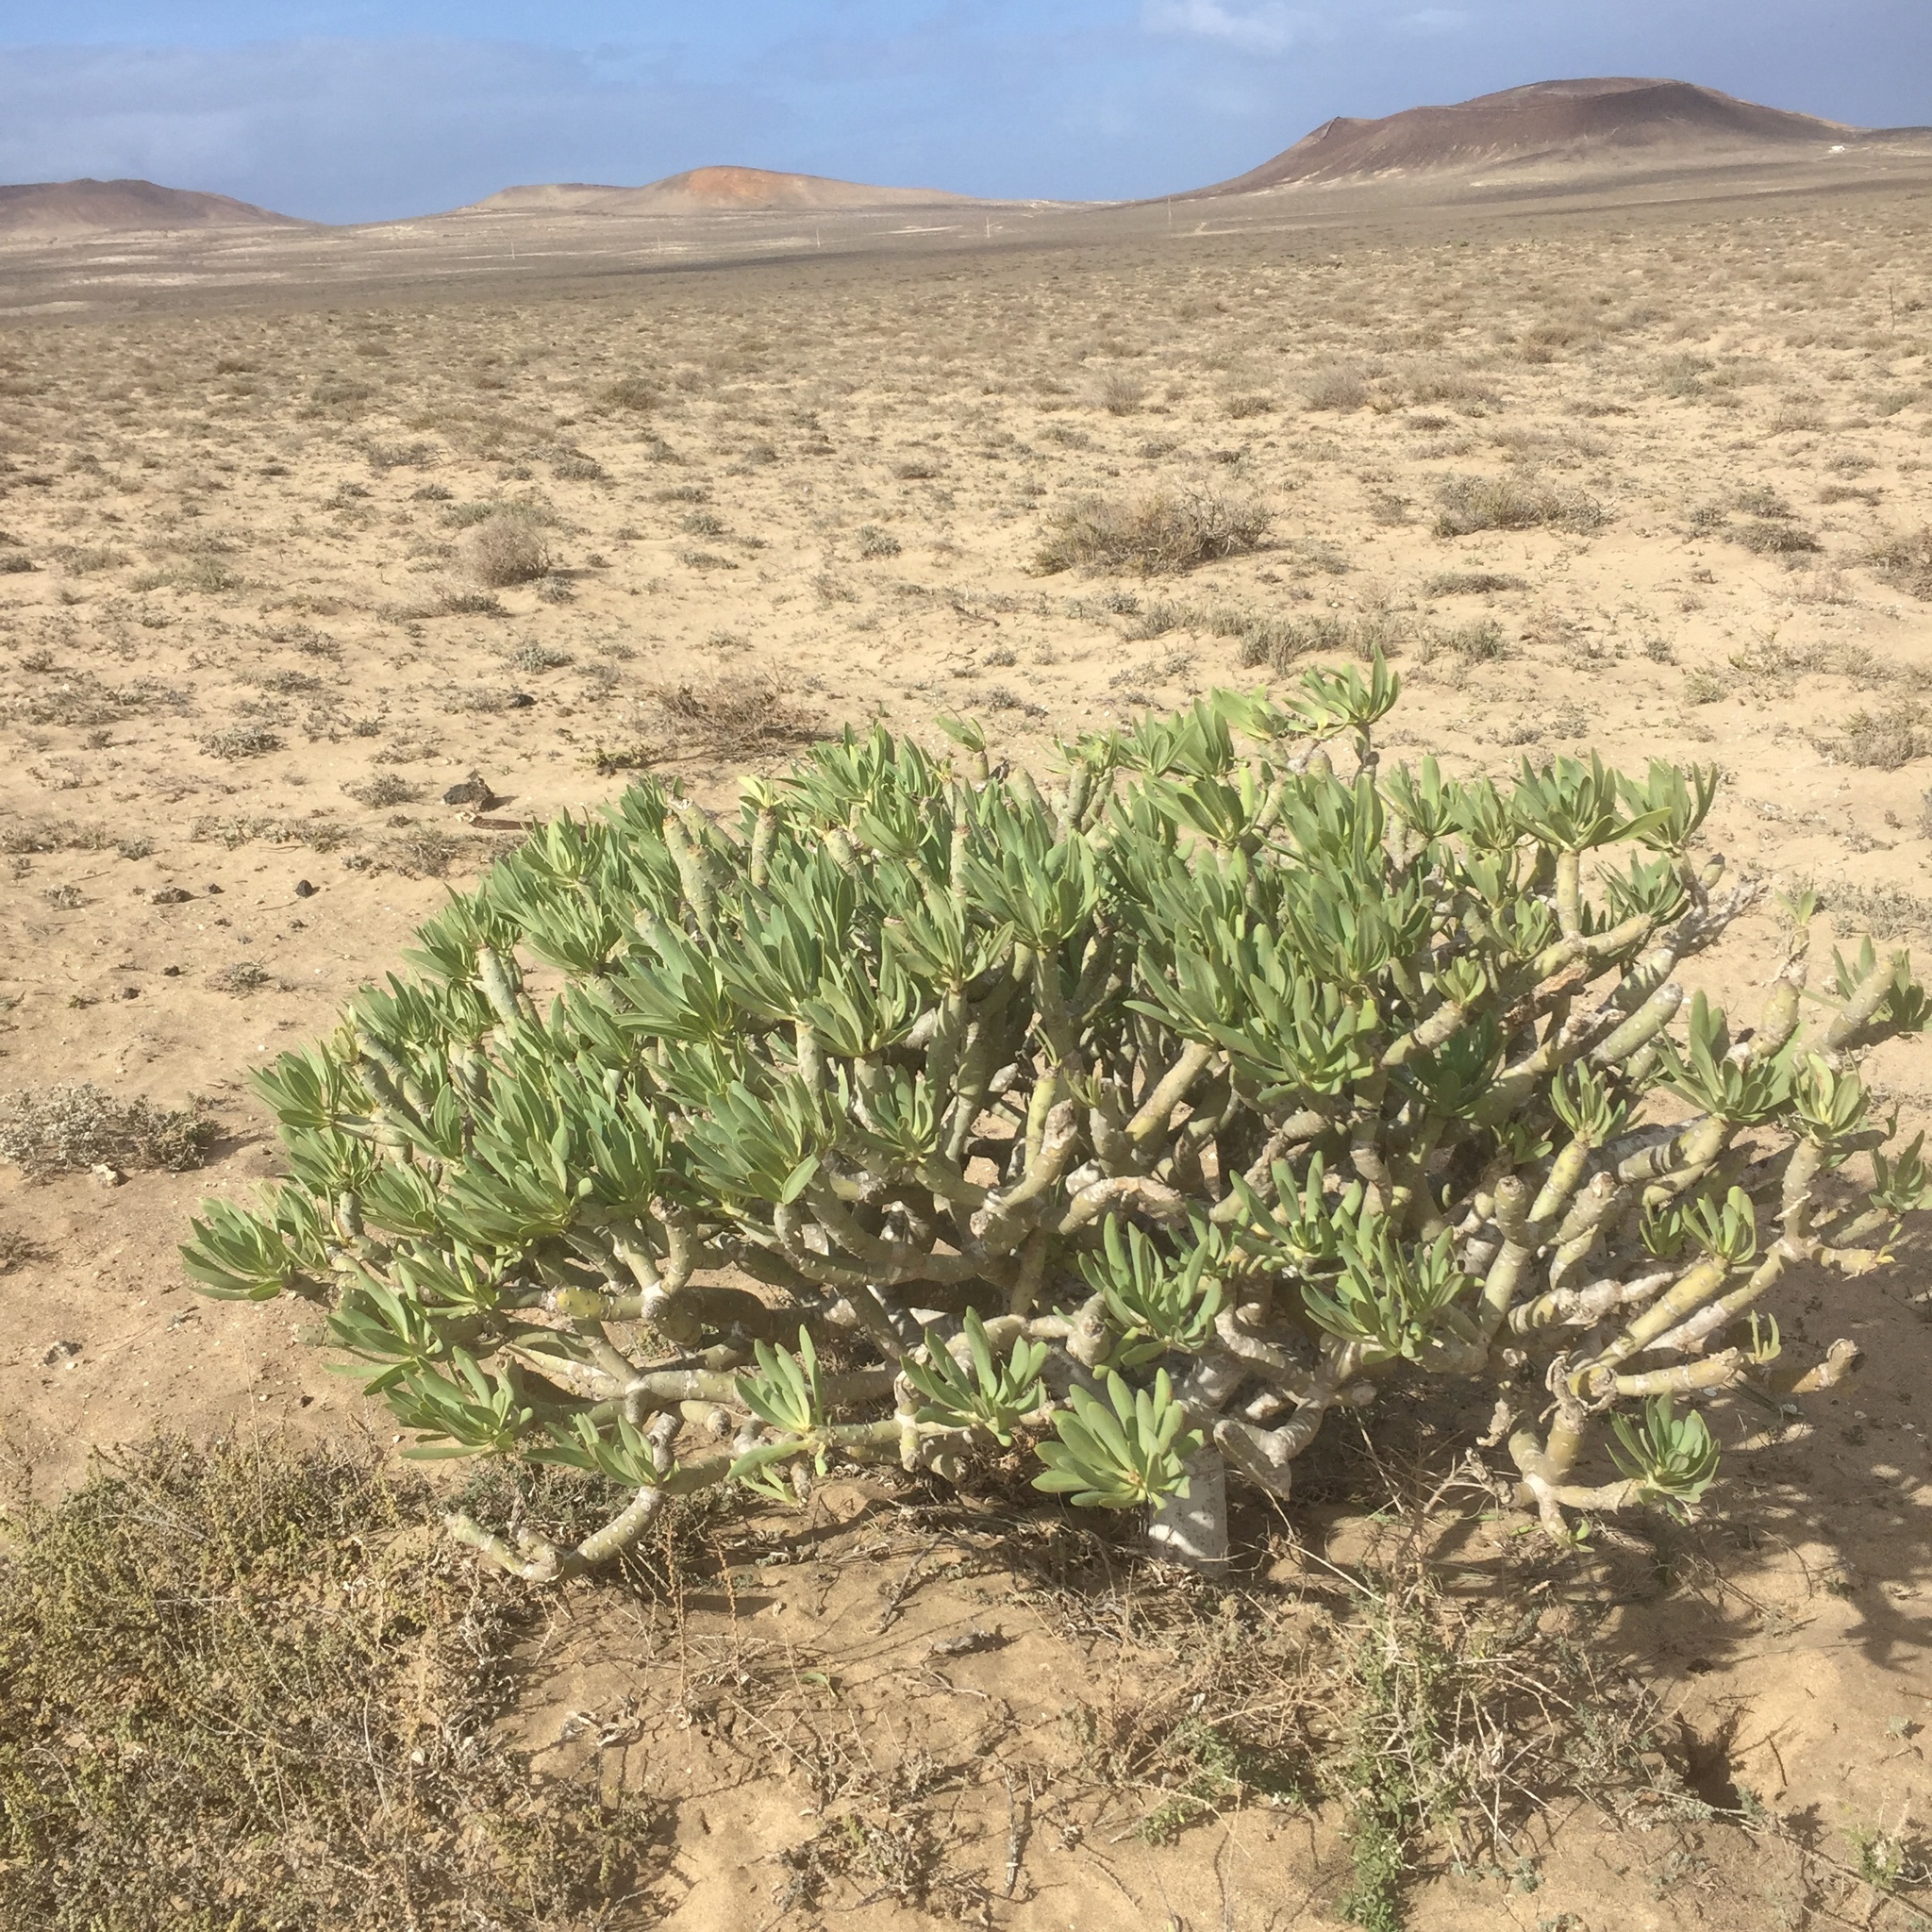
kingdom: Plantae
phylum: Tracheophyta
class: Magnoliopsida
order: Asterales
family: Asteraceae
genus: Kleinia
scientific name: Kleinia neriifolia
